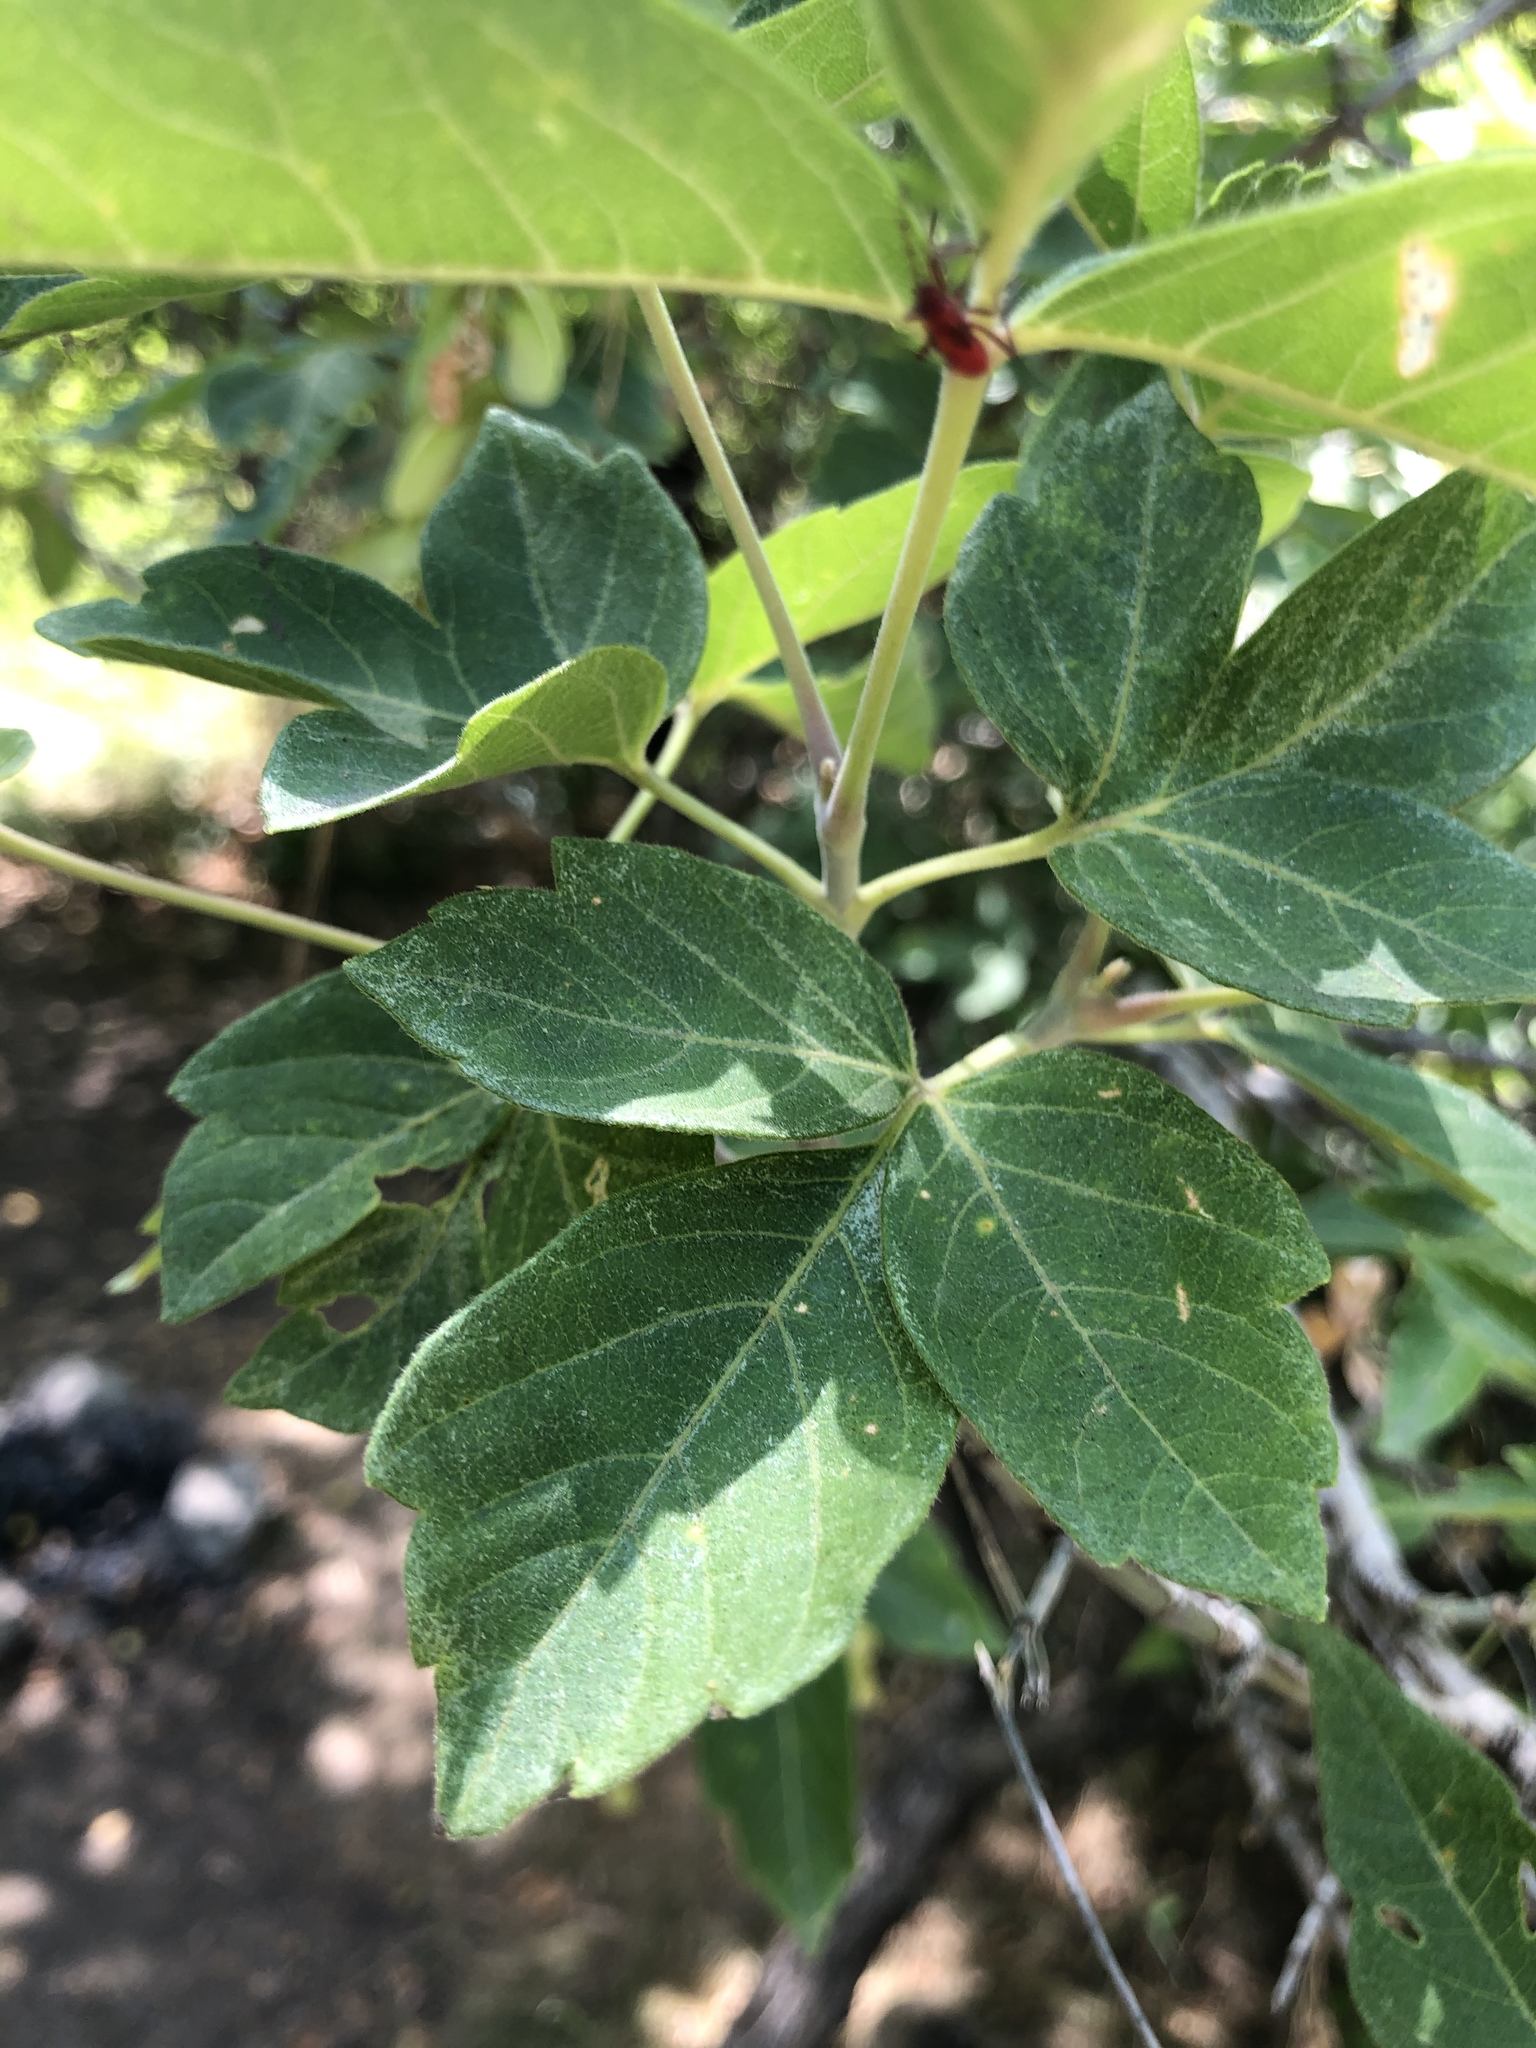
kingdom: Plantae
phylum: Tracheophyta
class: Magnoliopsida
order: Sapindales
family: Sapindaceae
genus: Acer
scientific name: Acer negundo
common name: Ashleaf maple
